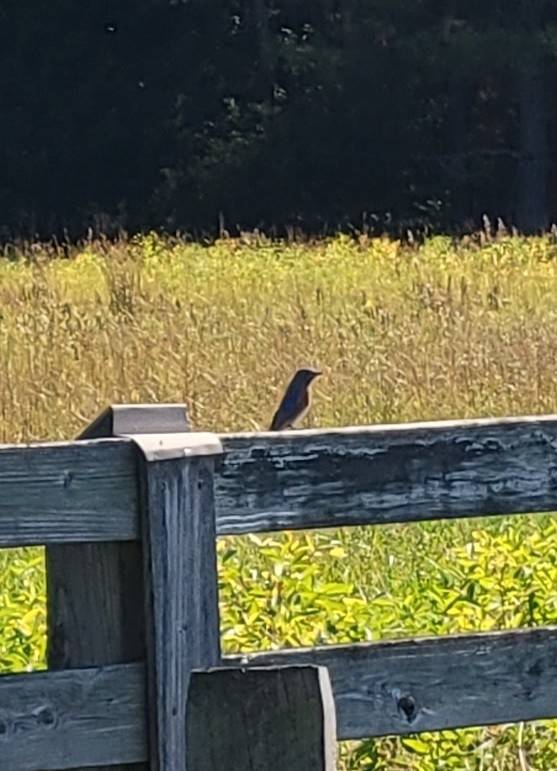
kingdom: Animalia
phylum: Chordata
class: Aves
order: Passeriformes
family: Turdidae
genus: Sialia
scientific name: Sialia sialis
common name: Eastern bluebird
